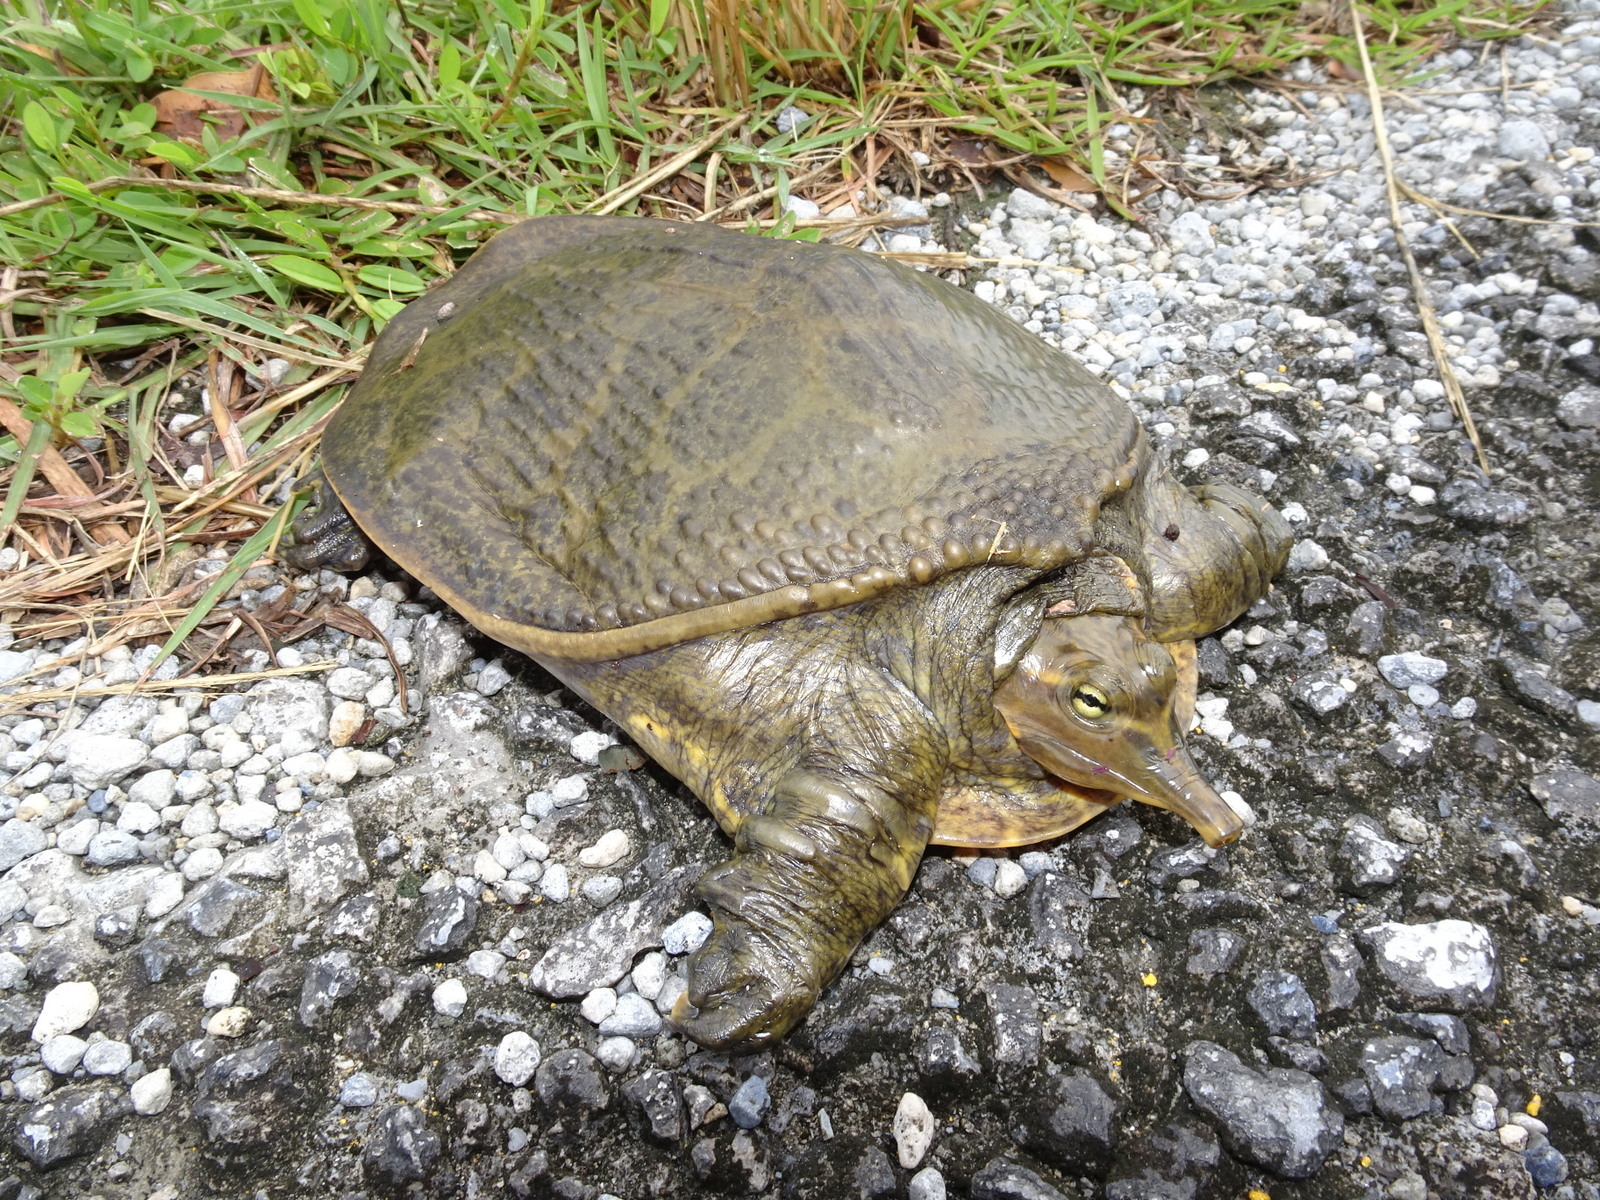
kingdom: Animalia
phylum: Chordata
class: Testudines
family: Trionychidae
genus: Apalone
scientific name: Apalone ferox
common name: Florida softshell turtle
